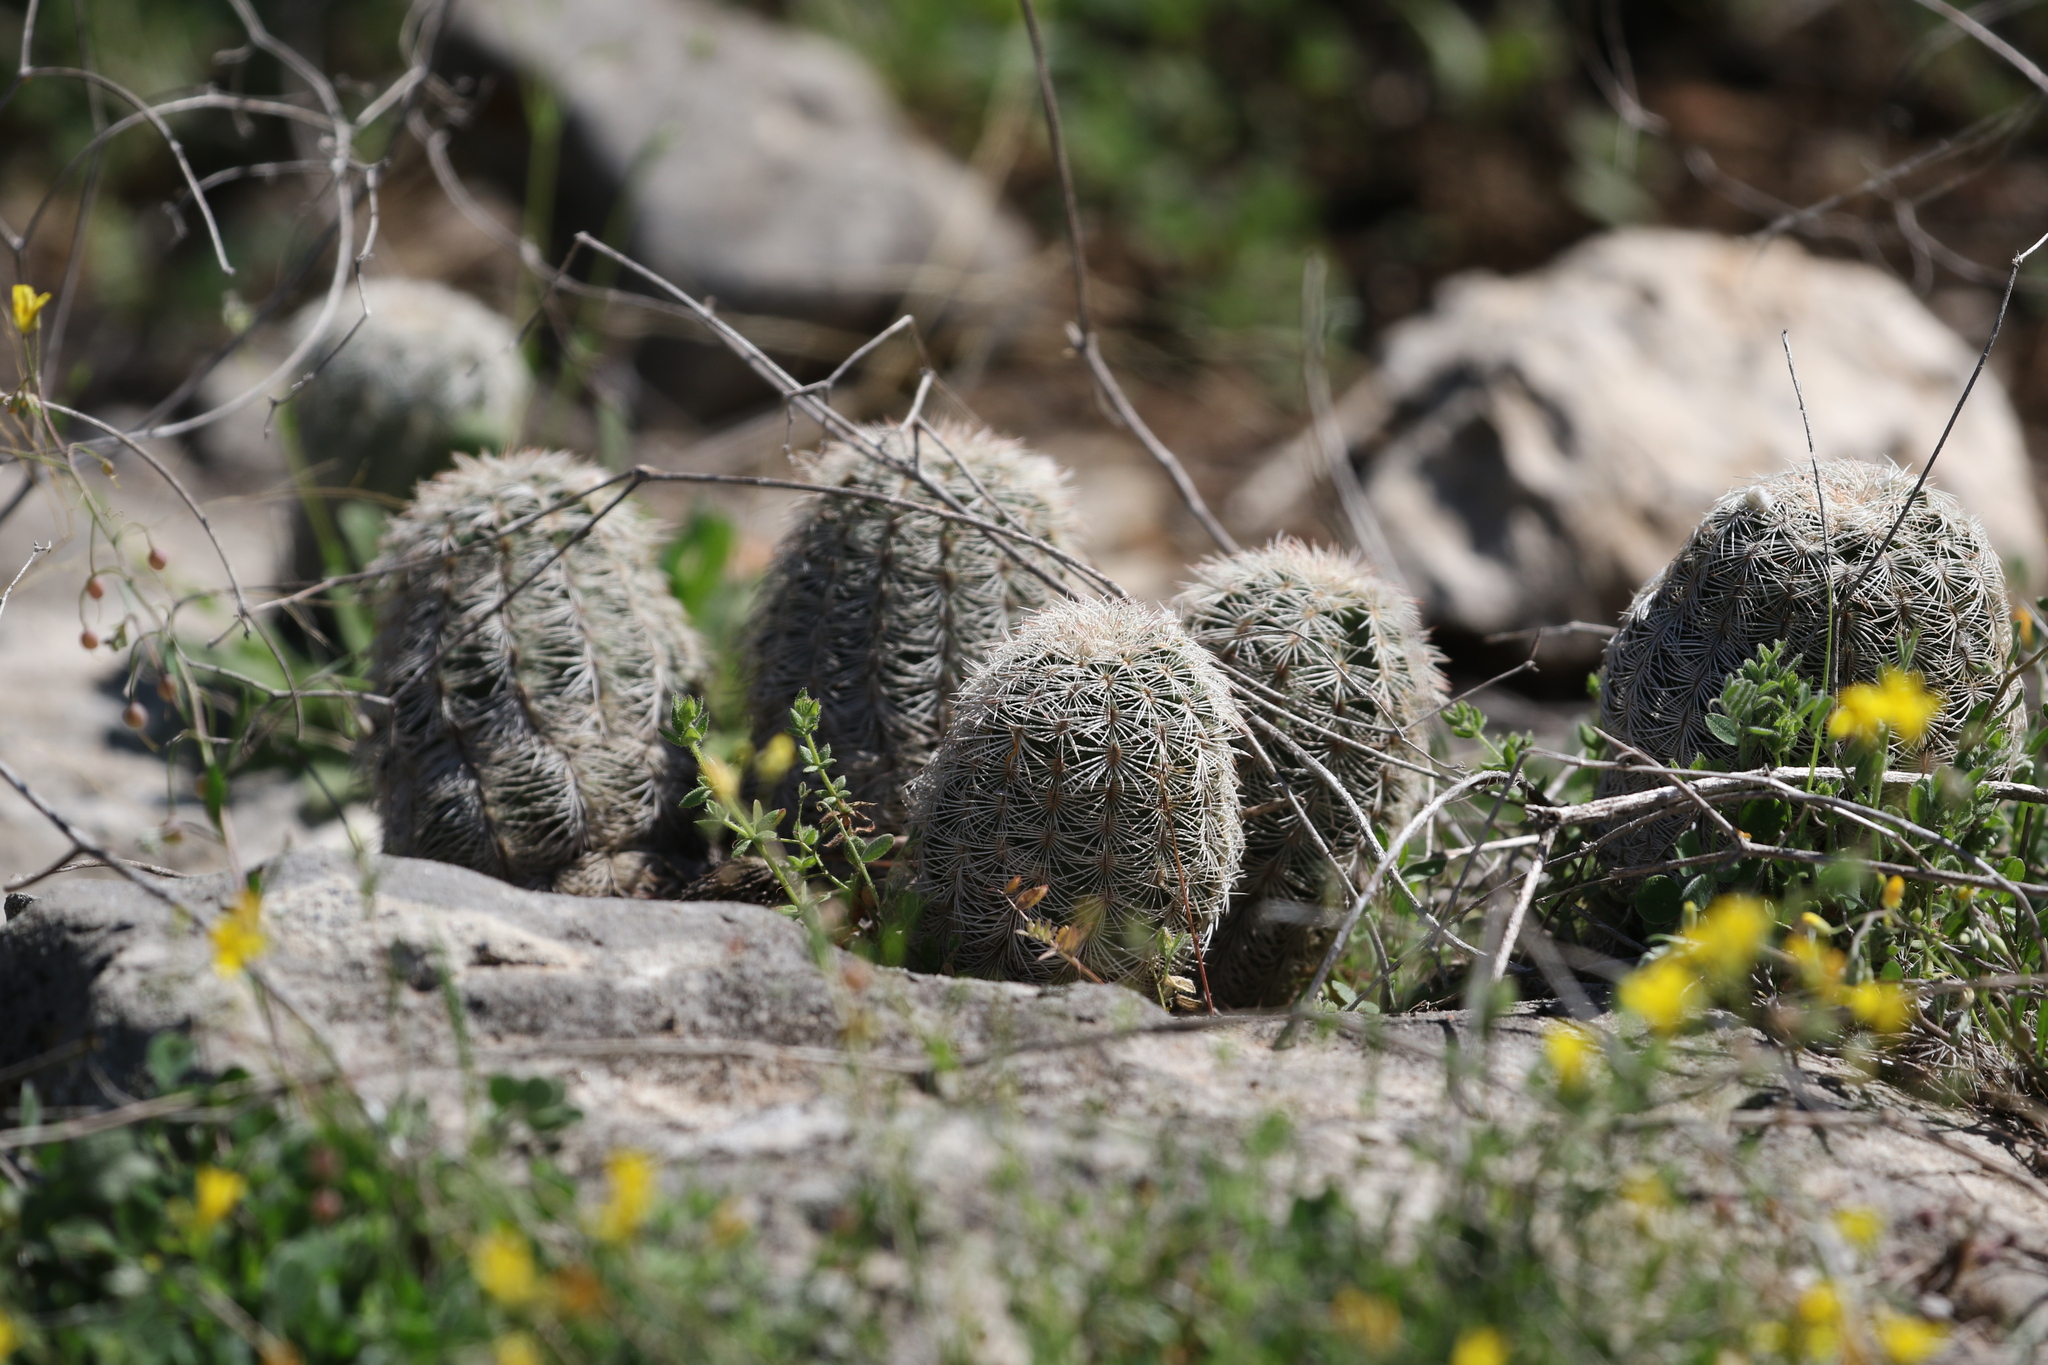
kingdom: Plantae
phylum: Tracheophyta
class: Magnoliopsida
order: Caryophyllales
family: Cactaceae
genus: Echinocereus
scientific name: Echinocereus reichenbachii
